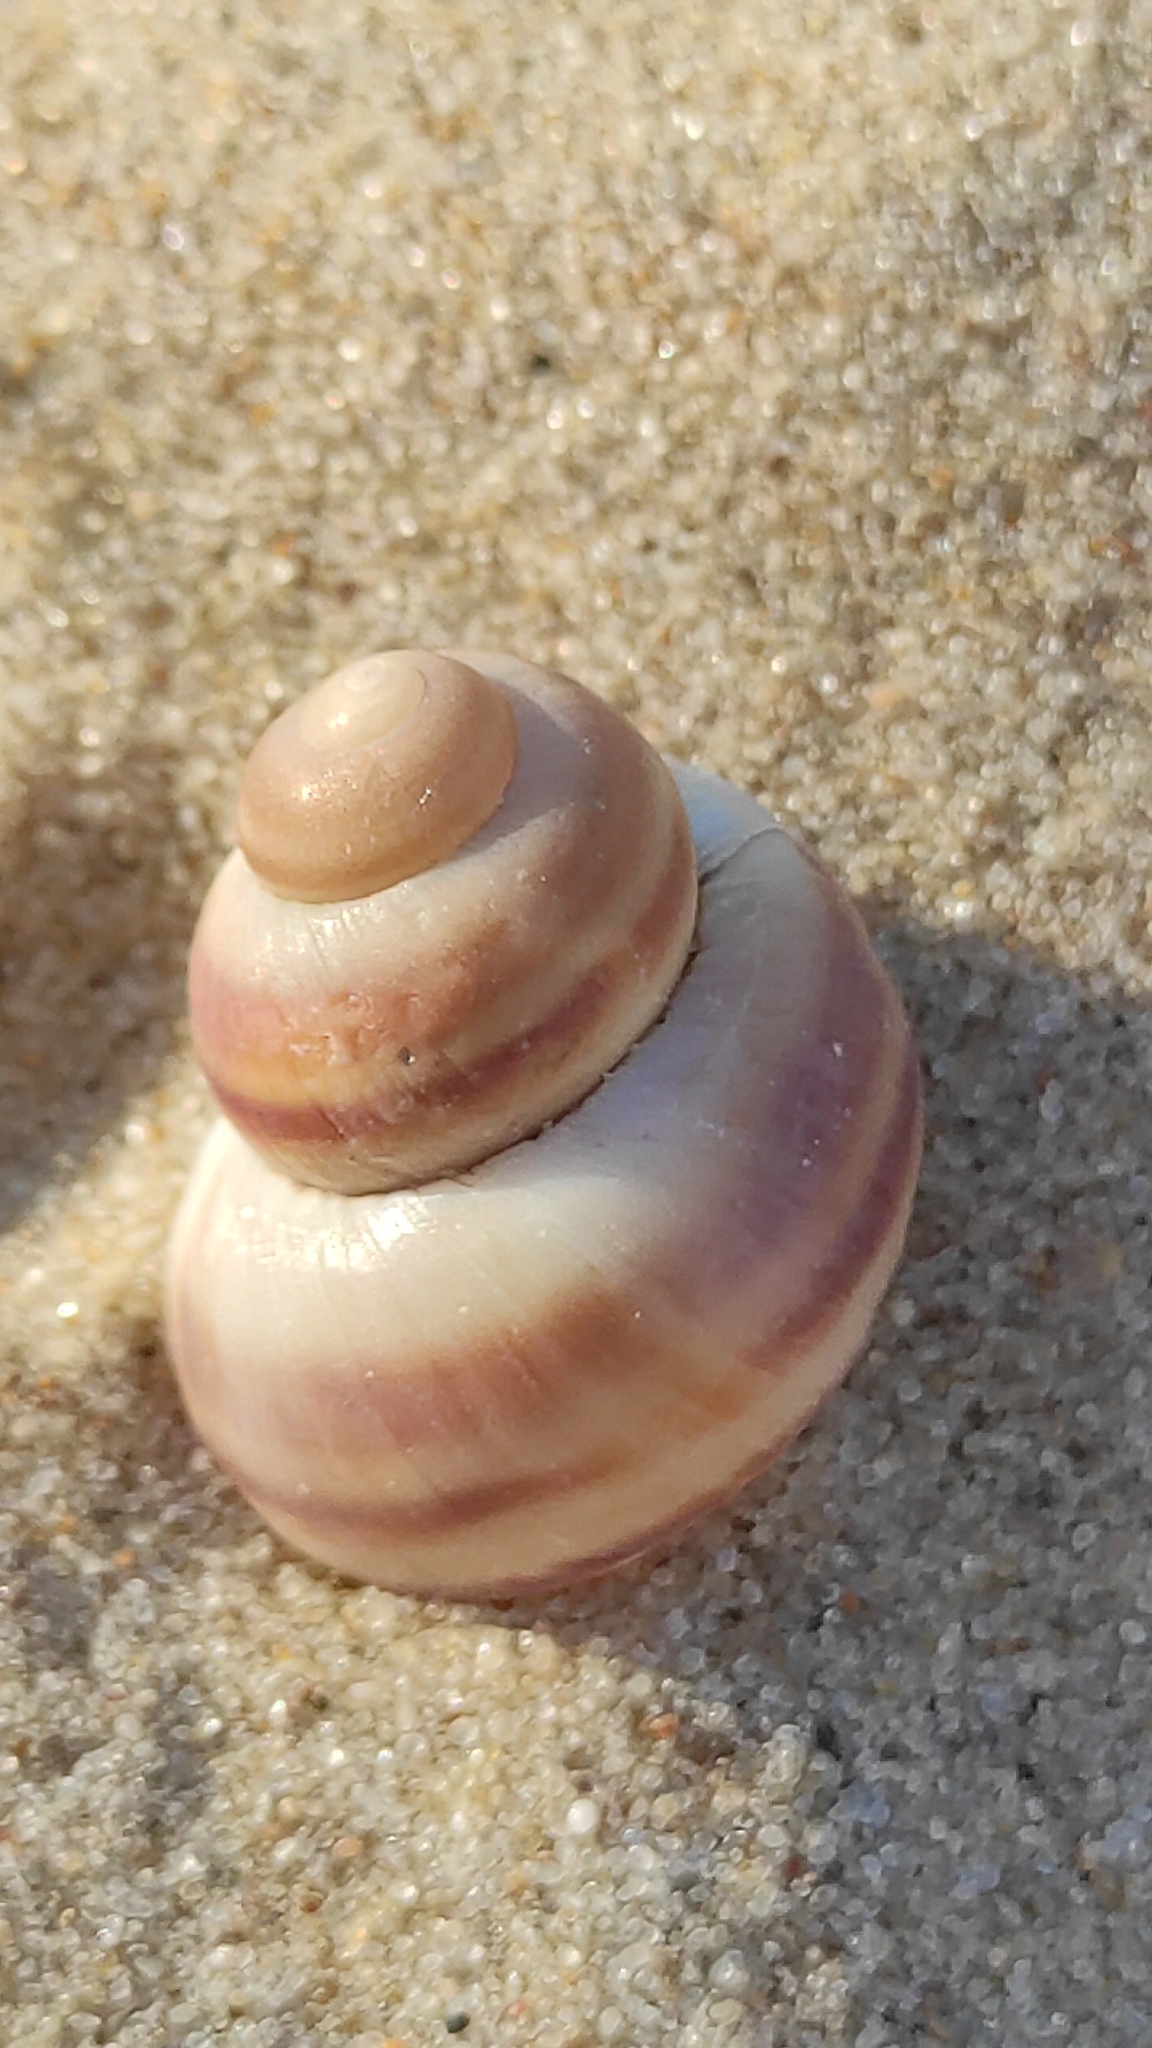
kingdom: Animalia
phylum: Mollusca
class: Gastropoda
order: Architaenioglossa
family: Viviparidae
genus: Viviparus
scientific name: Viviparus viviparus
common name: River snail
